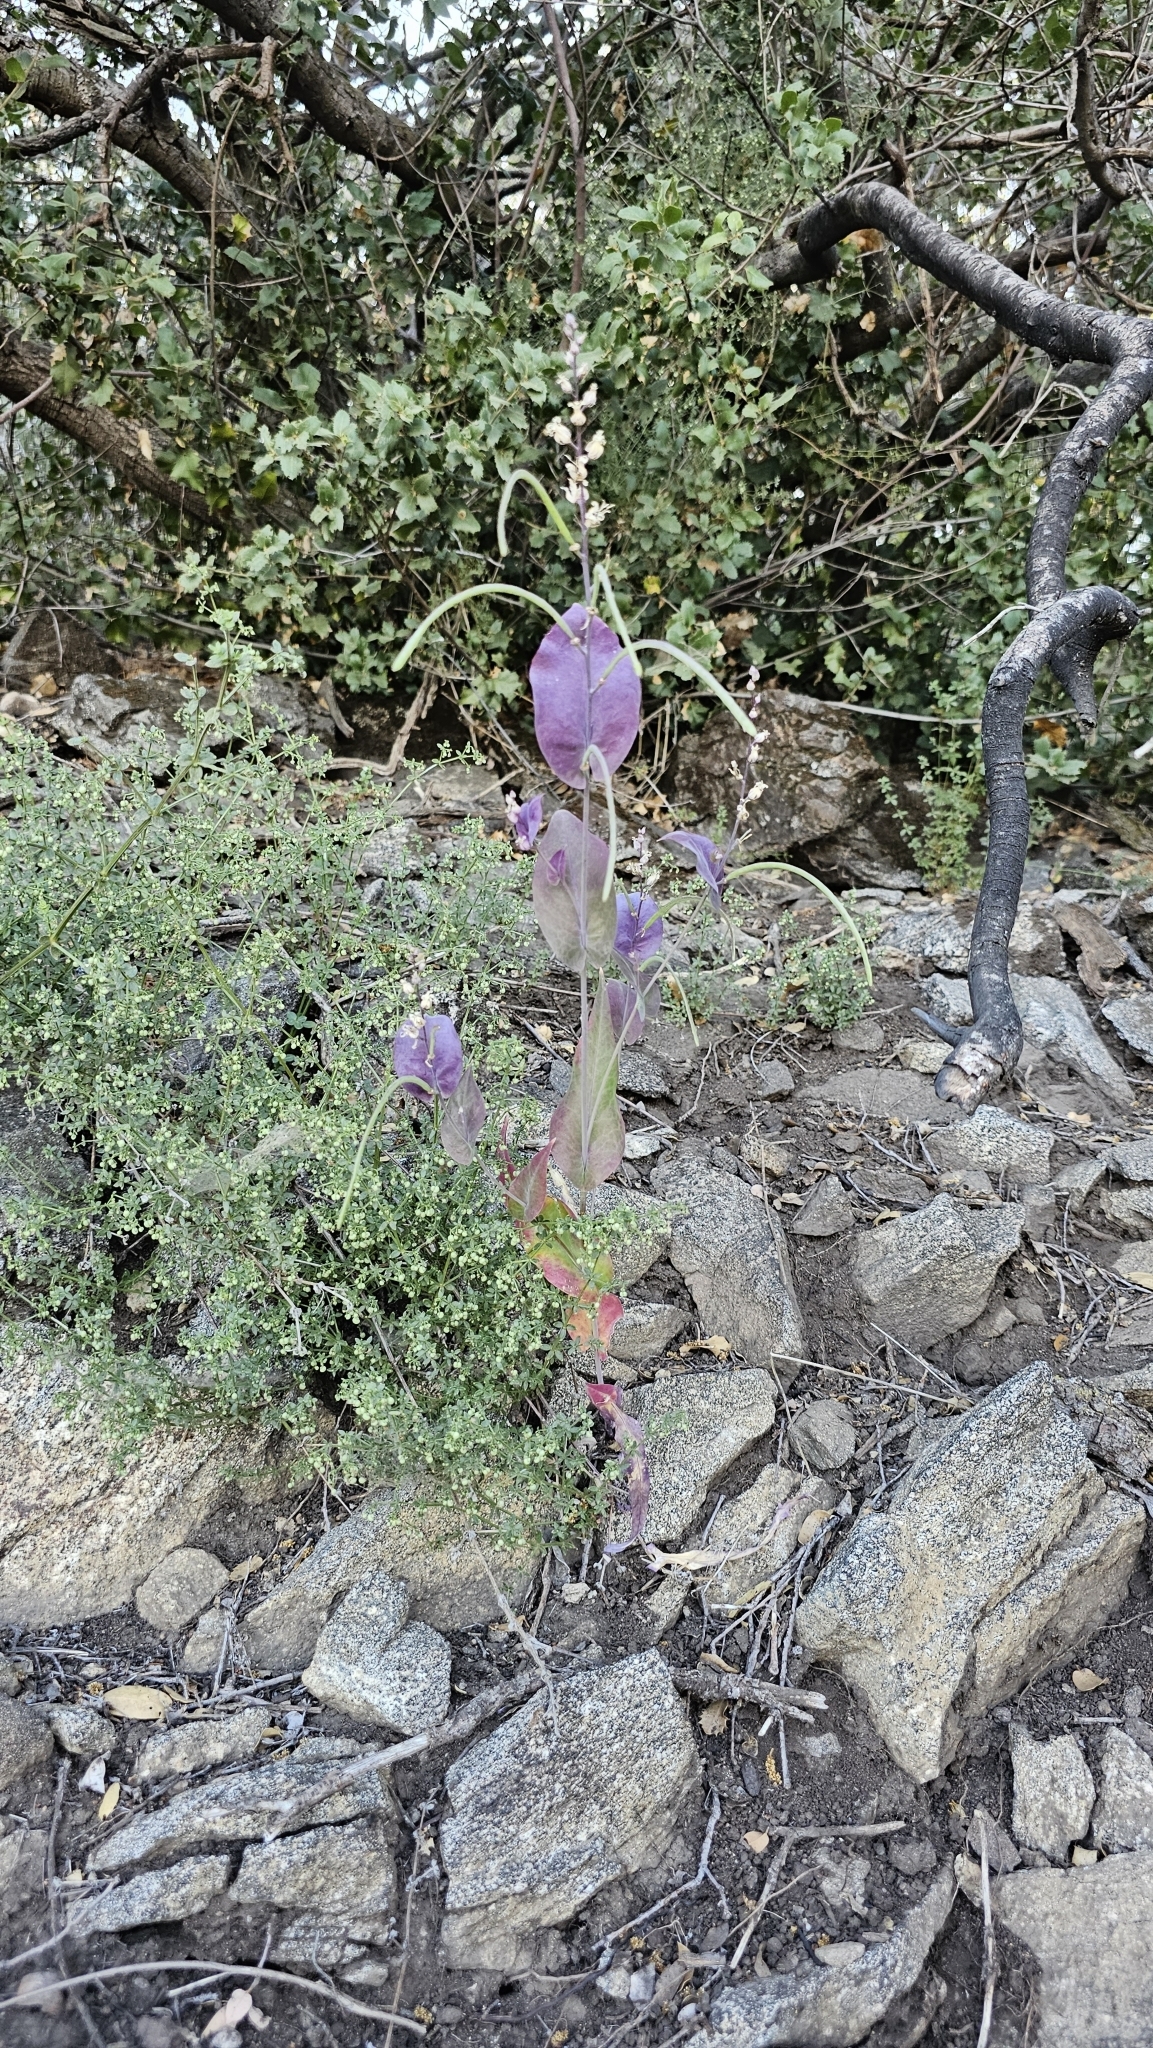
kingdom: Plantae
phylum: Tracheophyta
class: Magnoliopsida
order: Brassicales
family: Brassicaceae
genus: Streptanthus
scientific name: Streptanthus farnsworthianus
